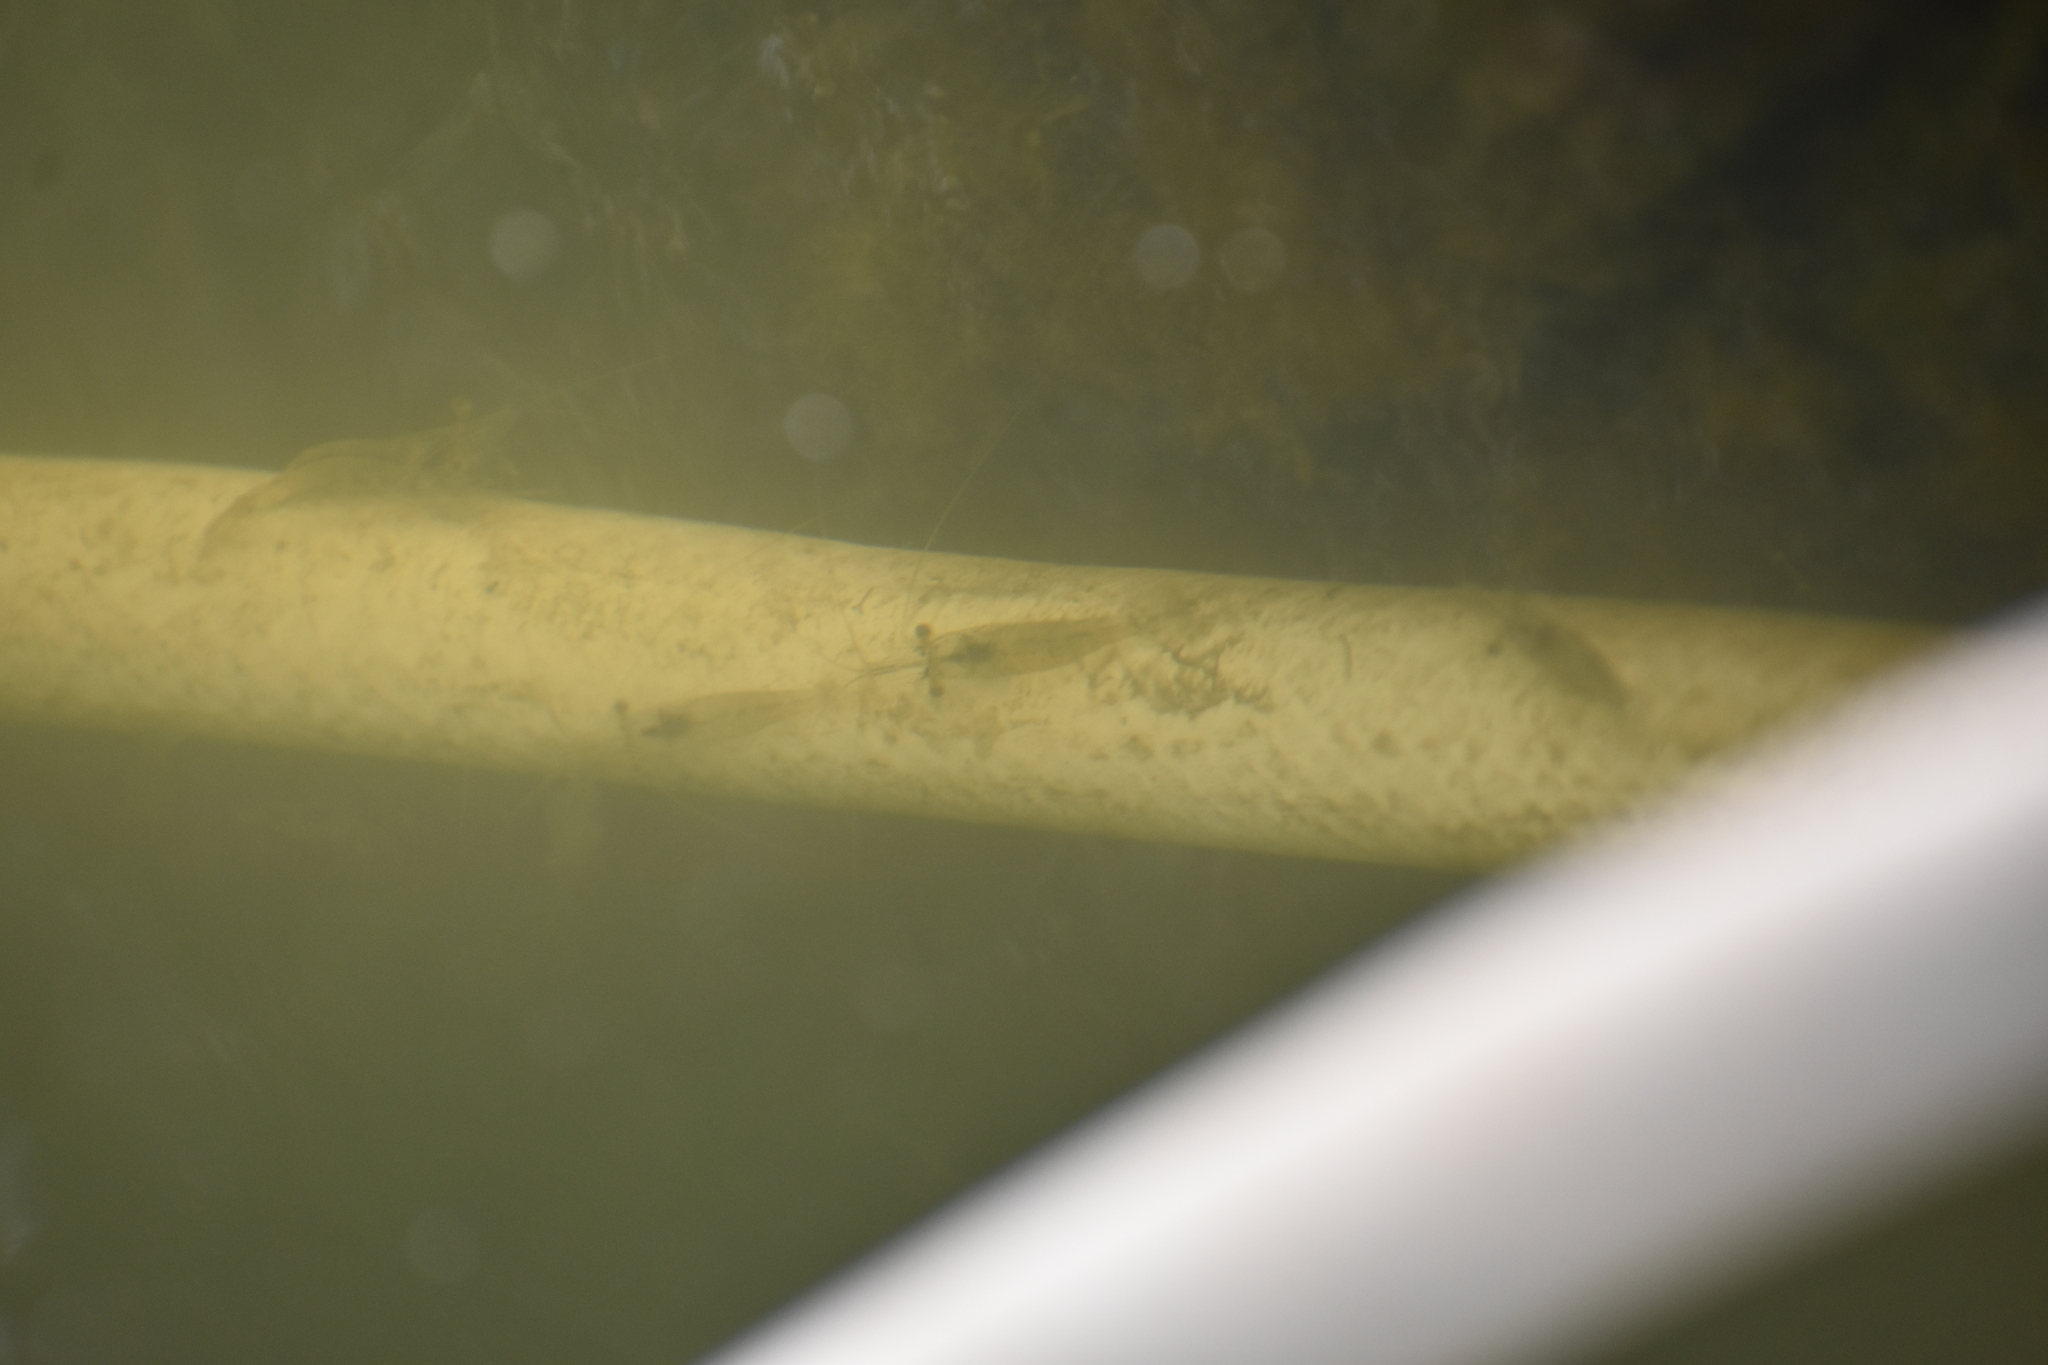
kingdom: Animalia
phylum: Arthropoda
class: Malacostraca
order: Decapoda
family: Palaemonidae
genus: Palaemon
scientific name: Palaemon paludosus
